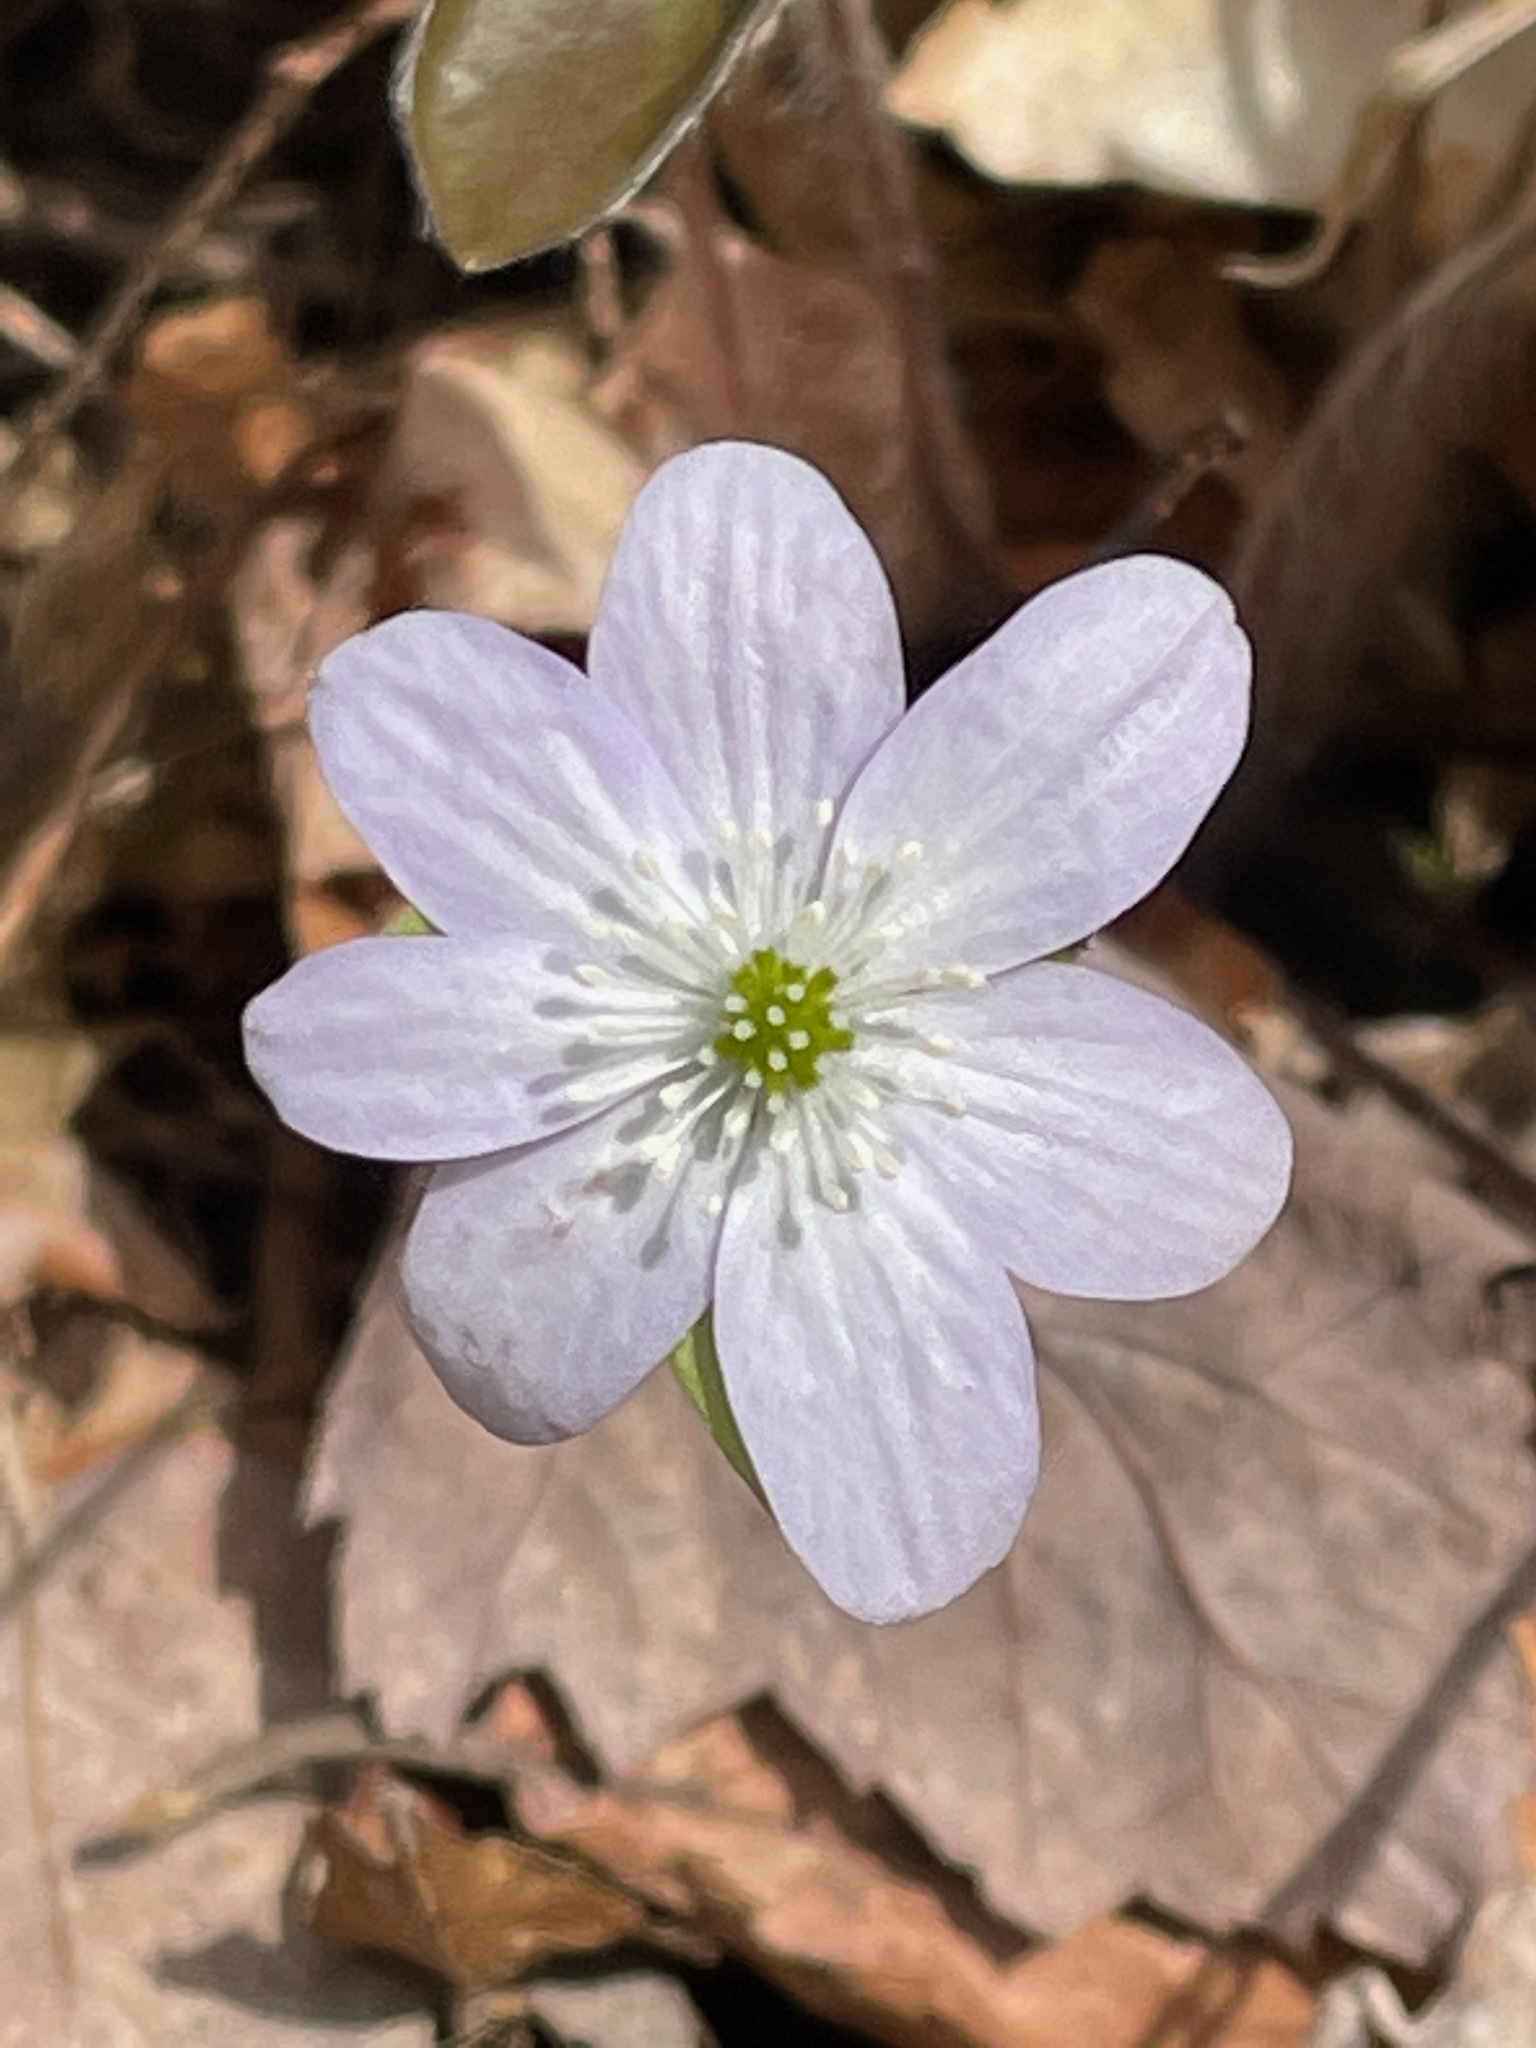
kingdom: Plantae
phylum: Tracheophyta
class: Magnoliopsida
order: Ranunculales
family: Ranunculaceae
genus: Hepatica
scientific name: Hepatica acutiloba
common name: Sharp-lobed hepatica
